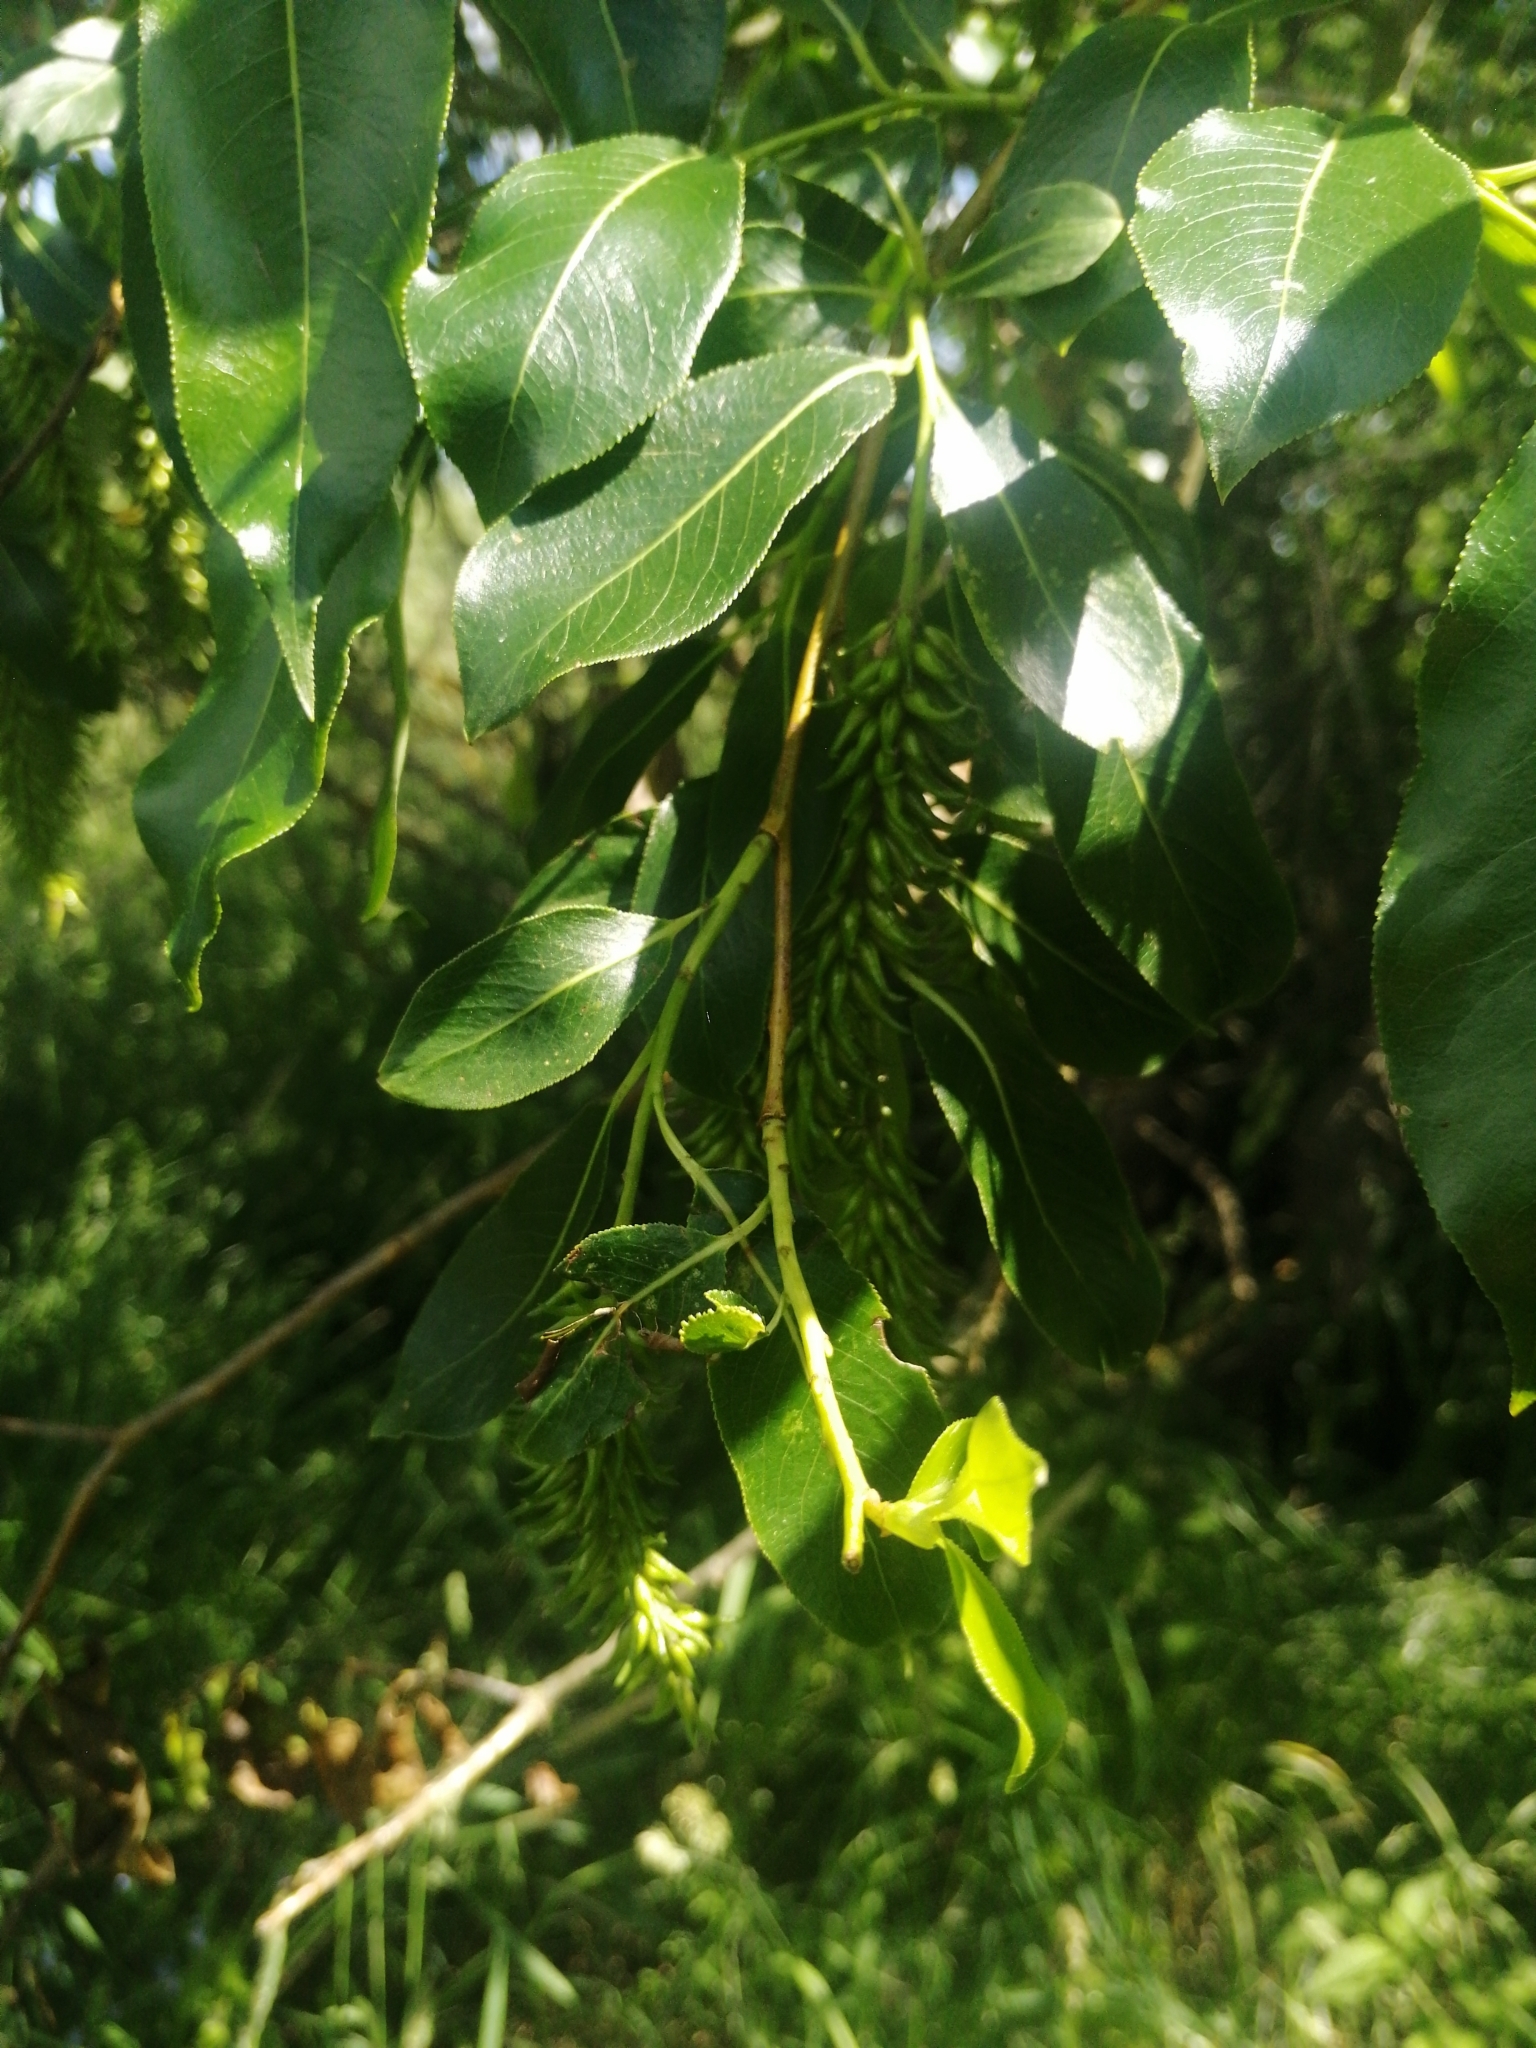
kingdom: Plantae
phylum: Tracheophyta
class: Magnoliopsida
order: Malpighiales
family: Salicaceae
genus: Salix
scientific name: Salix pentandra
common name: Bay willow
